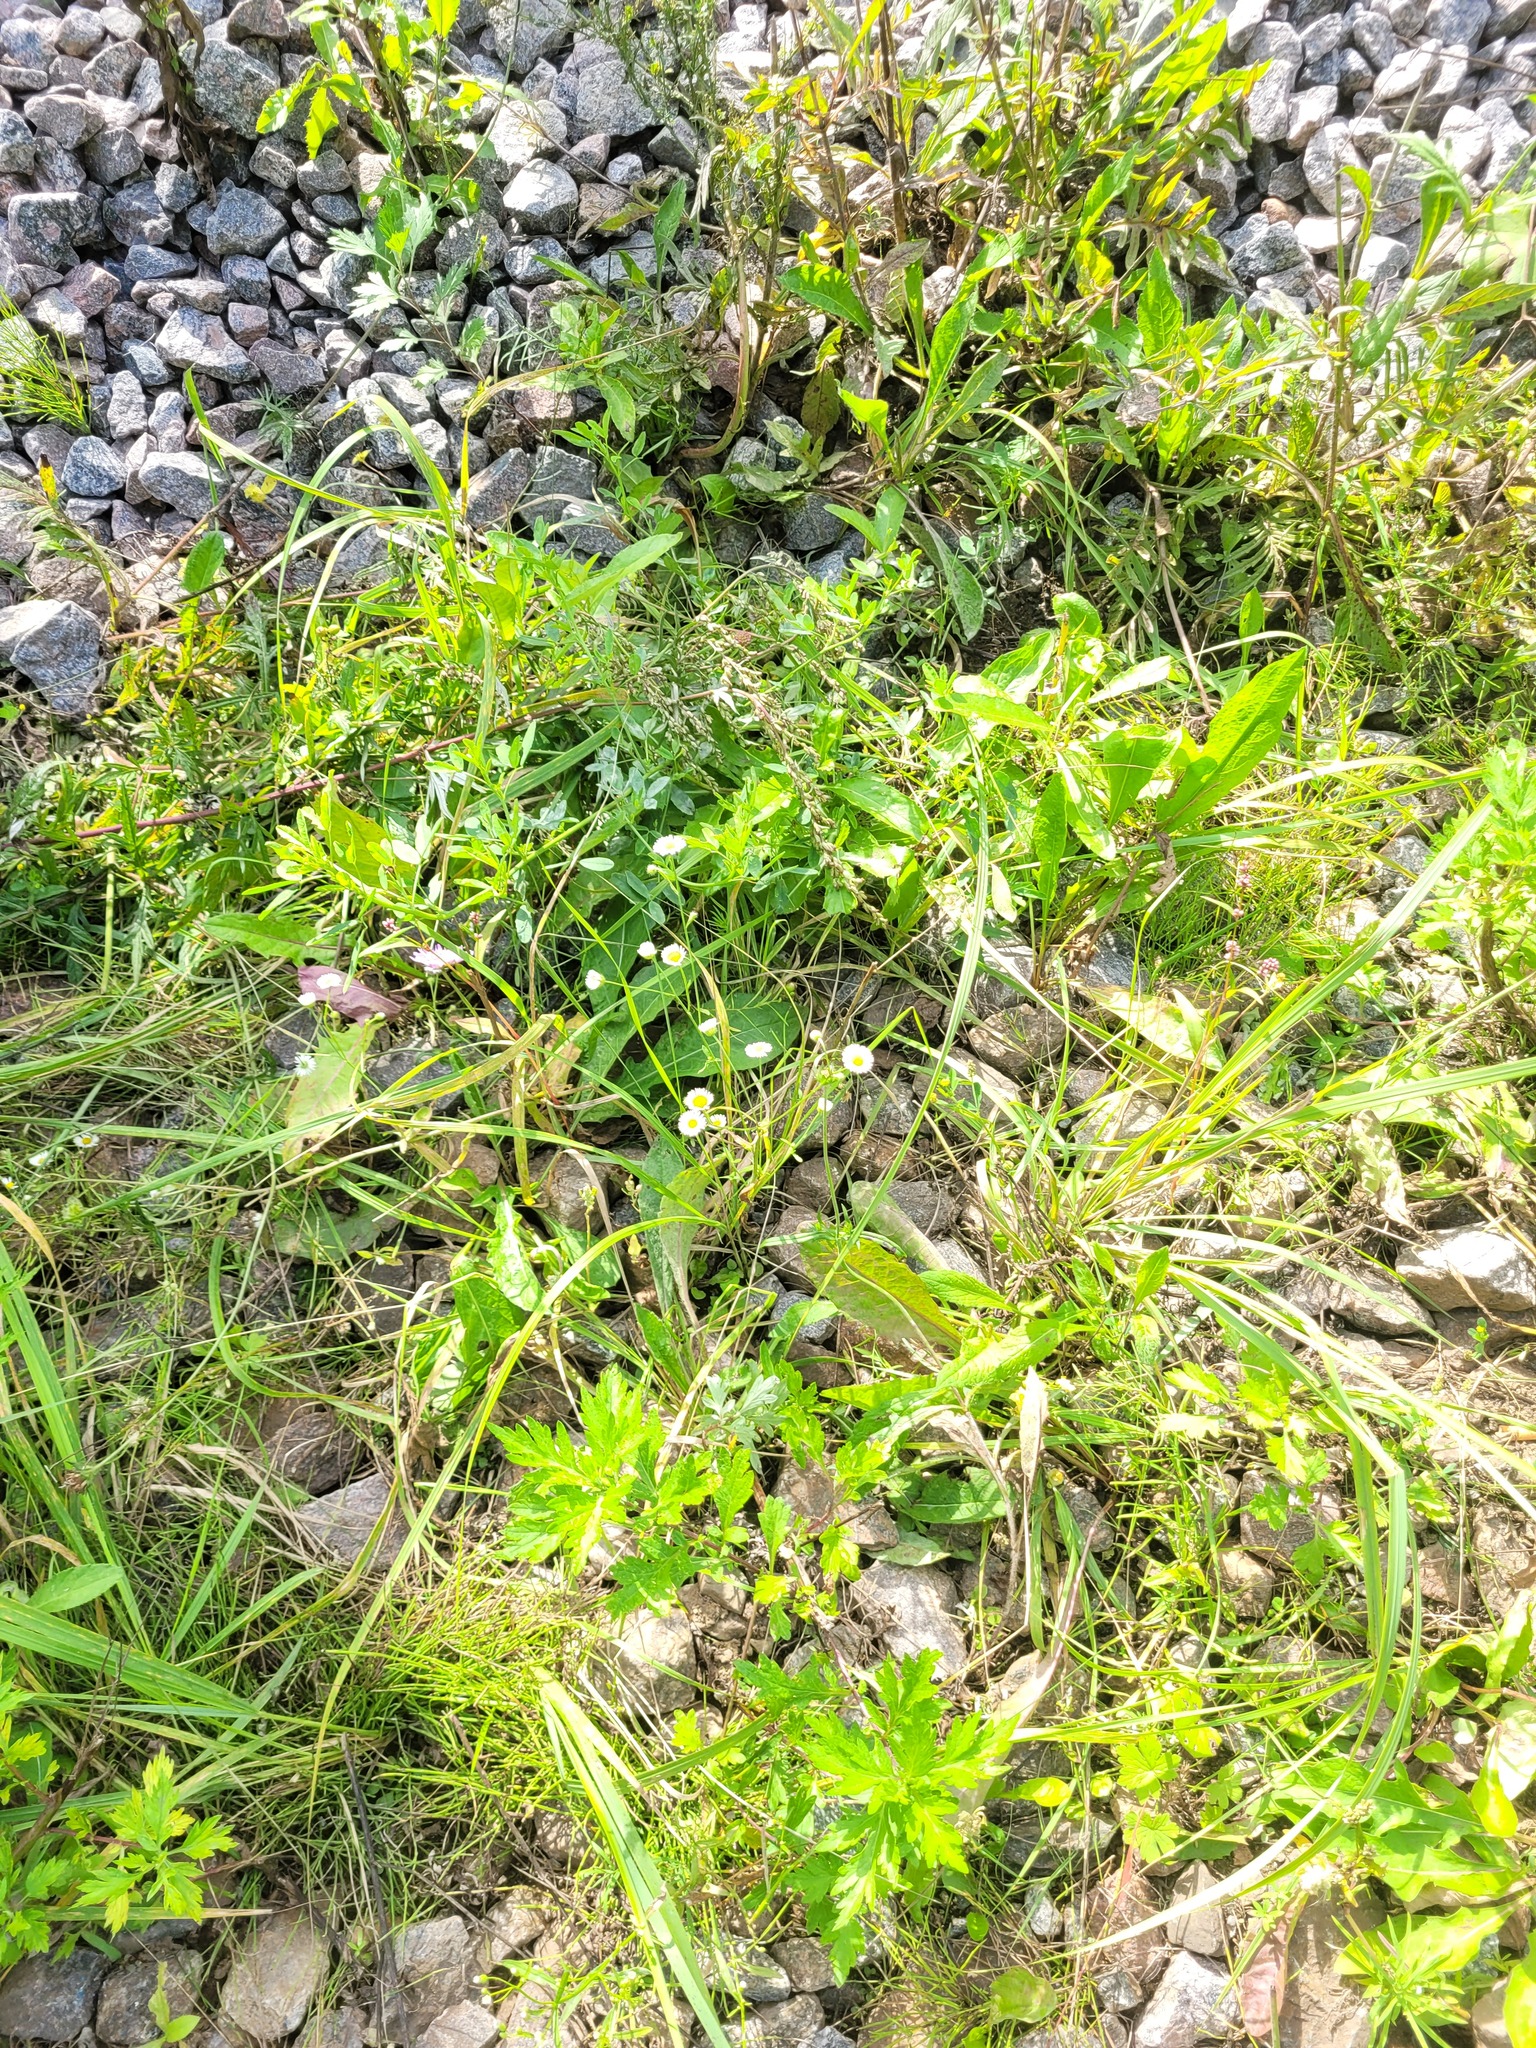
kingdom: Plantae
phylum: Tracheophyta
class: Magnoliopsida
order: Asterales
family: Asteraceae
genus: Erigeron
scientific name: Erigeron annuus
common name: Tall fleabane
